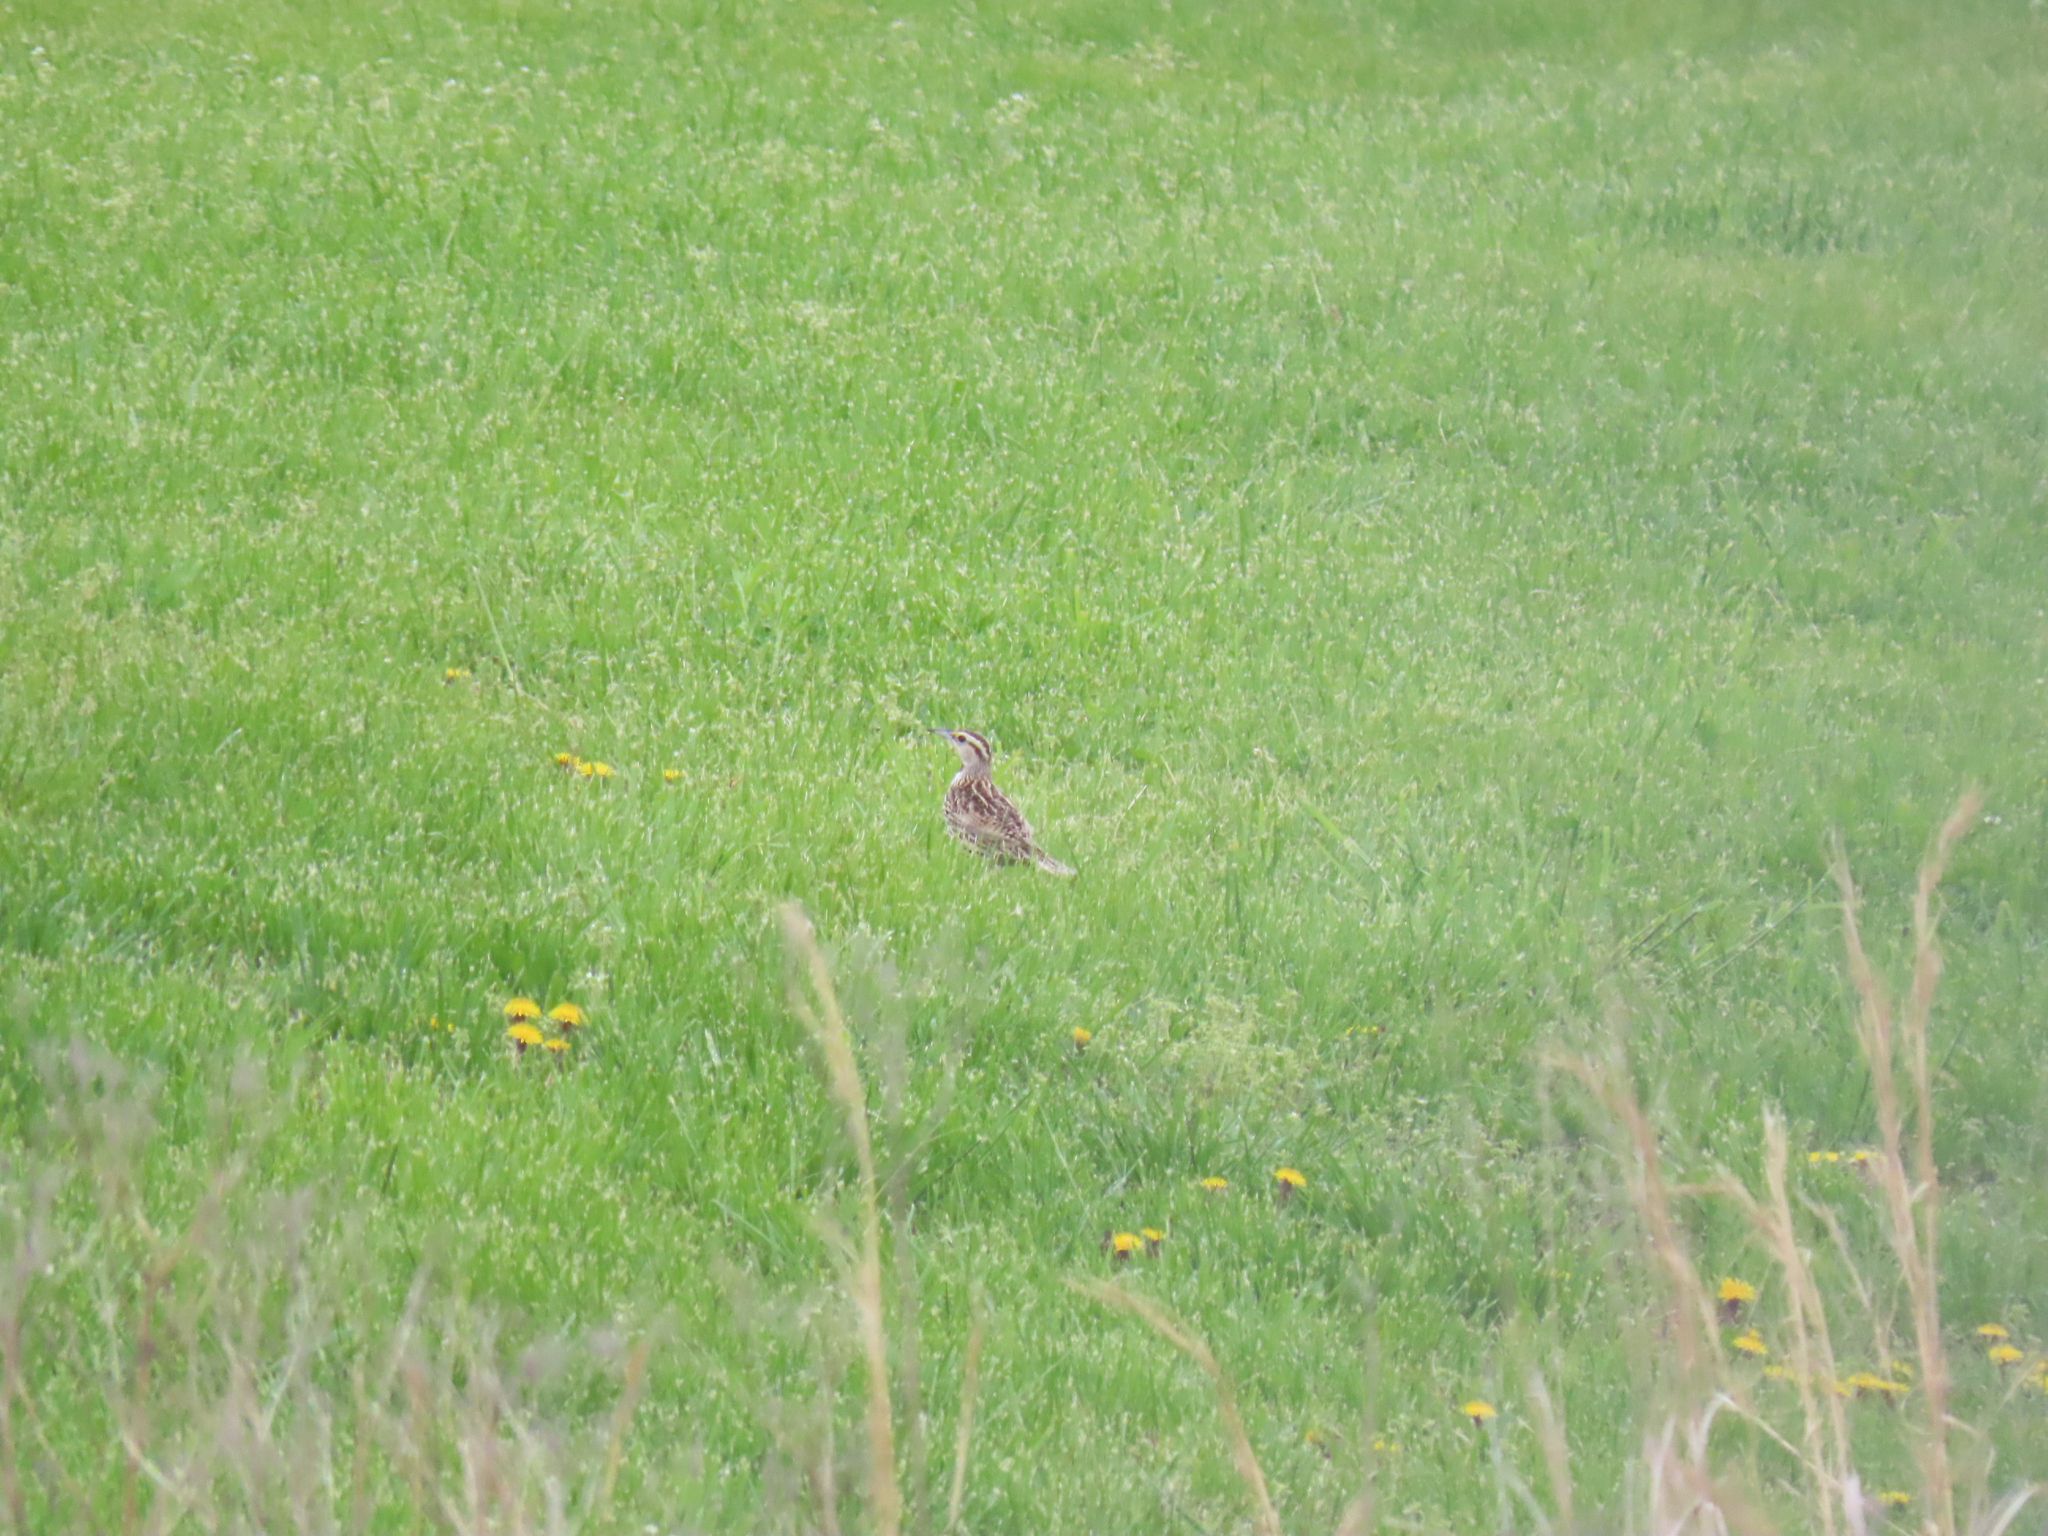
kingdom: Animalia
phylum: Chordata
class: Aves
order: Passeriformes
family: Icteridae
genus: Sturnella
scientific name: Sturnella magna
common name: Eastern meadowlark
